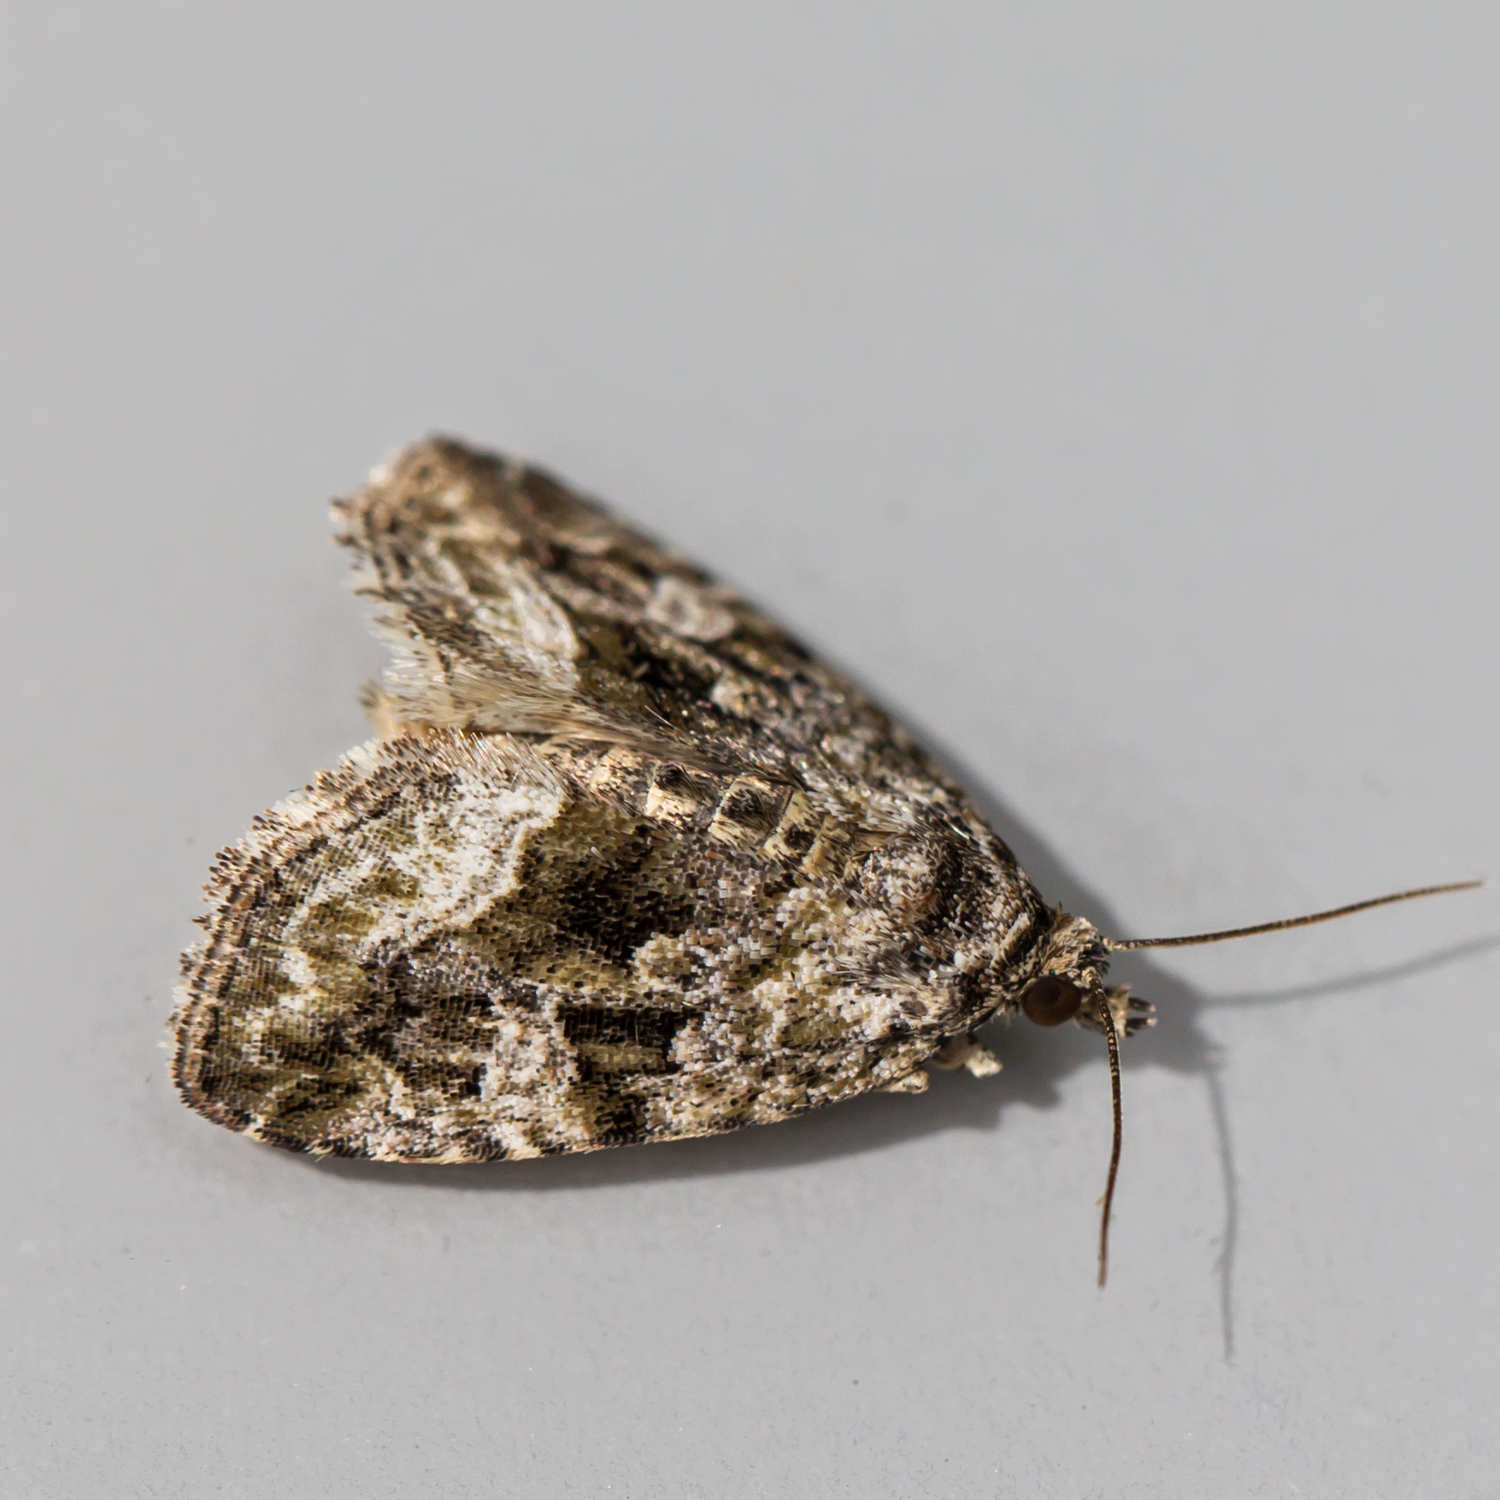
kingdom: Animalia
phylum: Arthropoda
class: Insecta
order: Lepidoptera
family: Noctuidae
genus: Protodeltote
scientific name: Protodeltote muscosula
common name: Large mossy glyph
